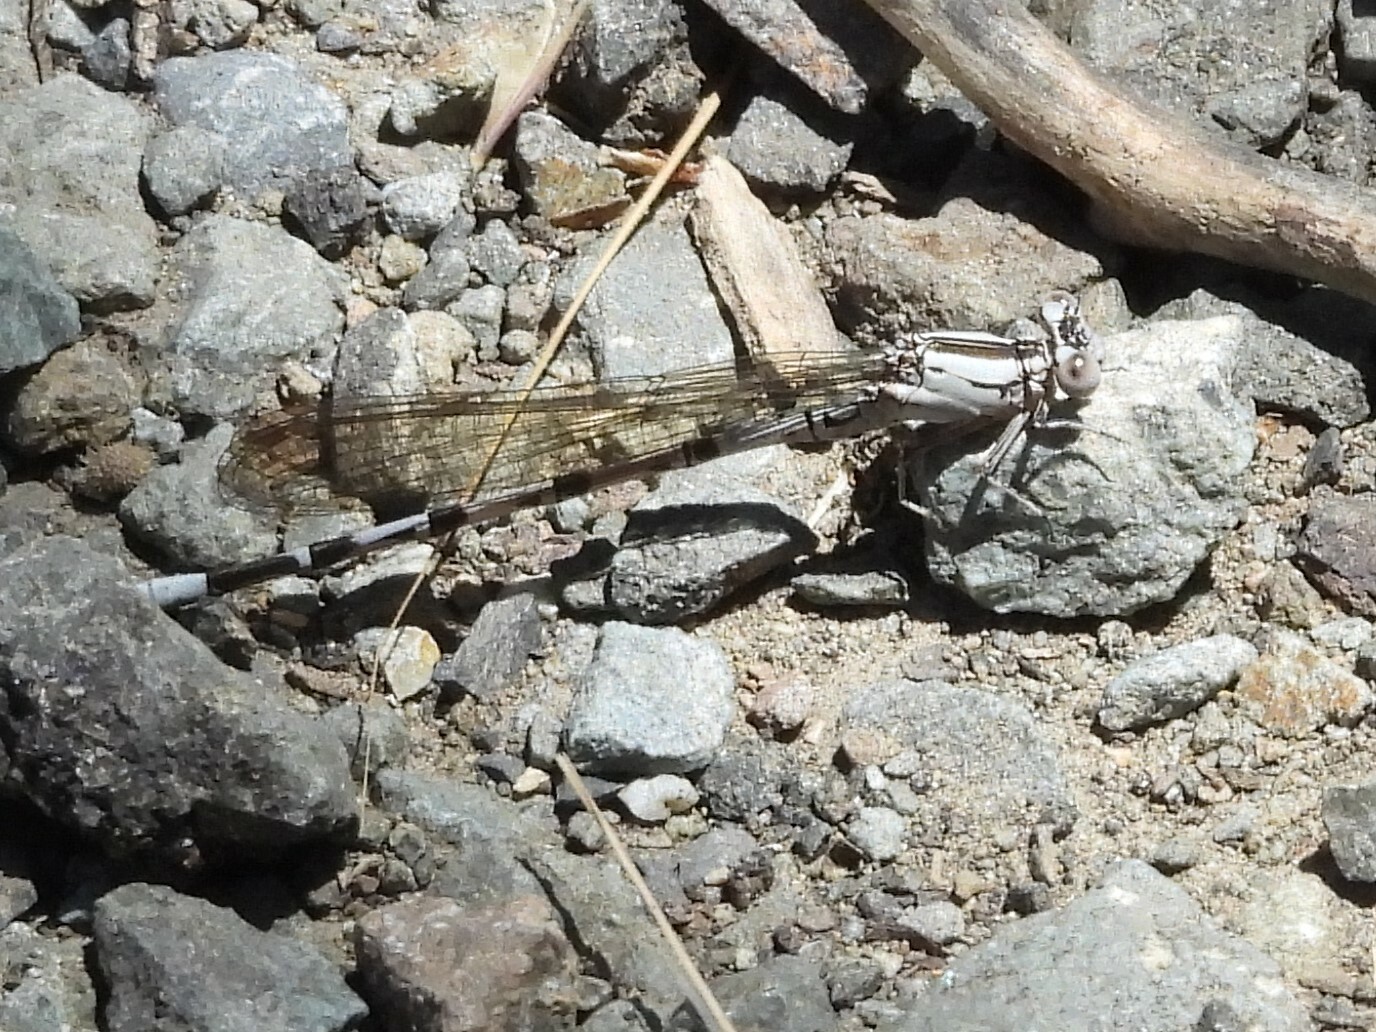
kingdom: Animalia
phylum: Arthropoda
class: Insecta
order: Odonata
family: Coenagrionidae
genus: Argia
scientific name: Argia vivida
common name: Vivid dancer
